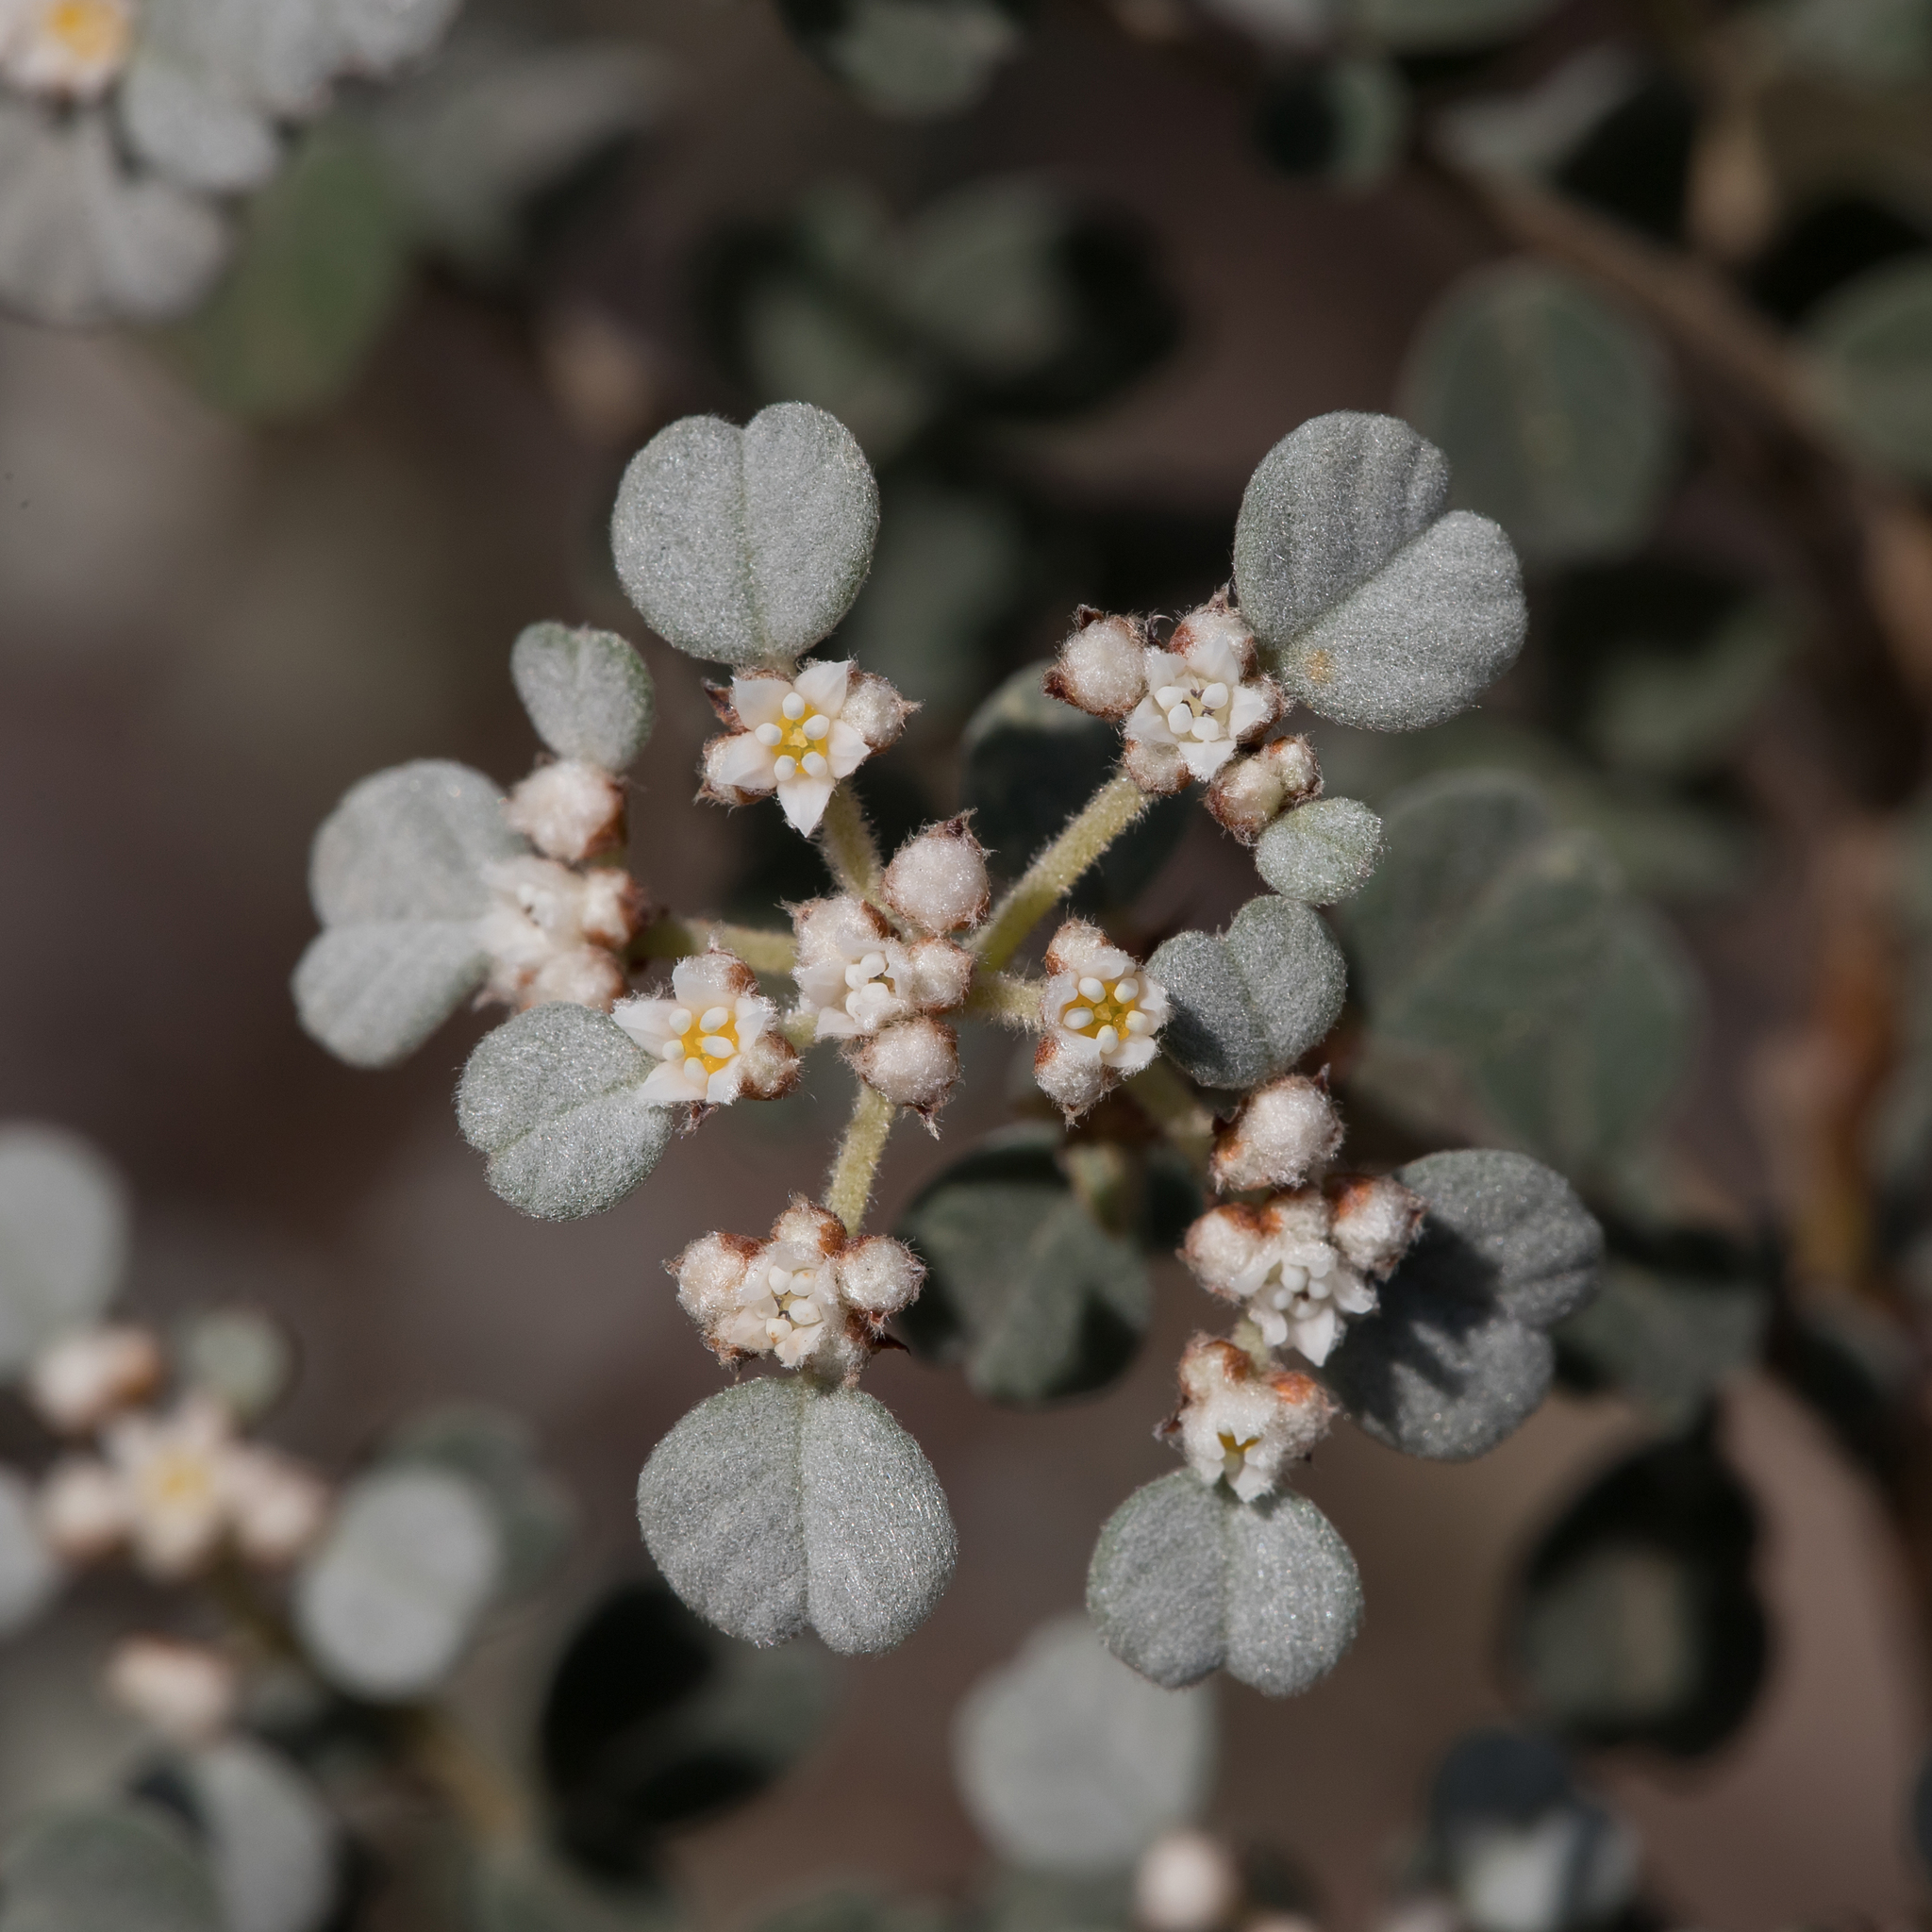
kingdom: Plantae
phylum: Tracheophyta
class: Magnoliopsida
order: Rosales
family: Rhamnaceae
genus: Spyridium
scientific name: Spyridium parvifolium
